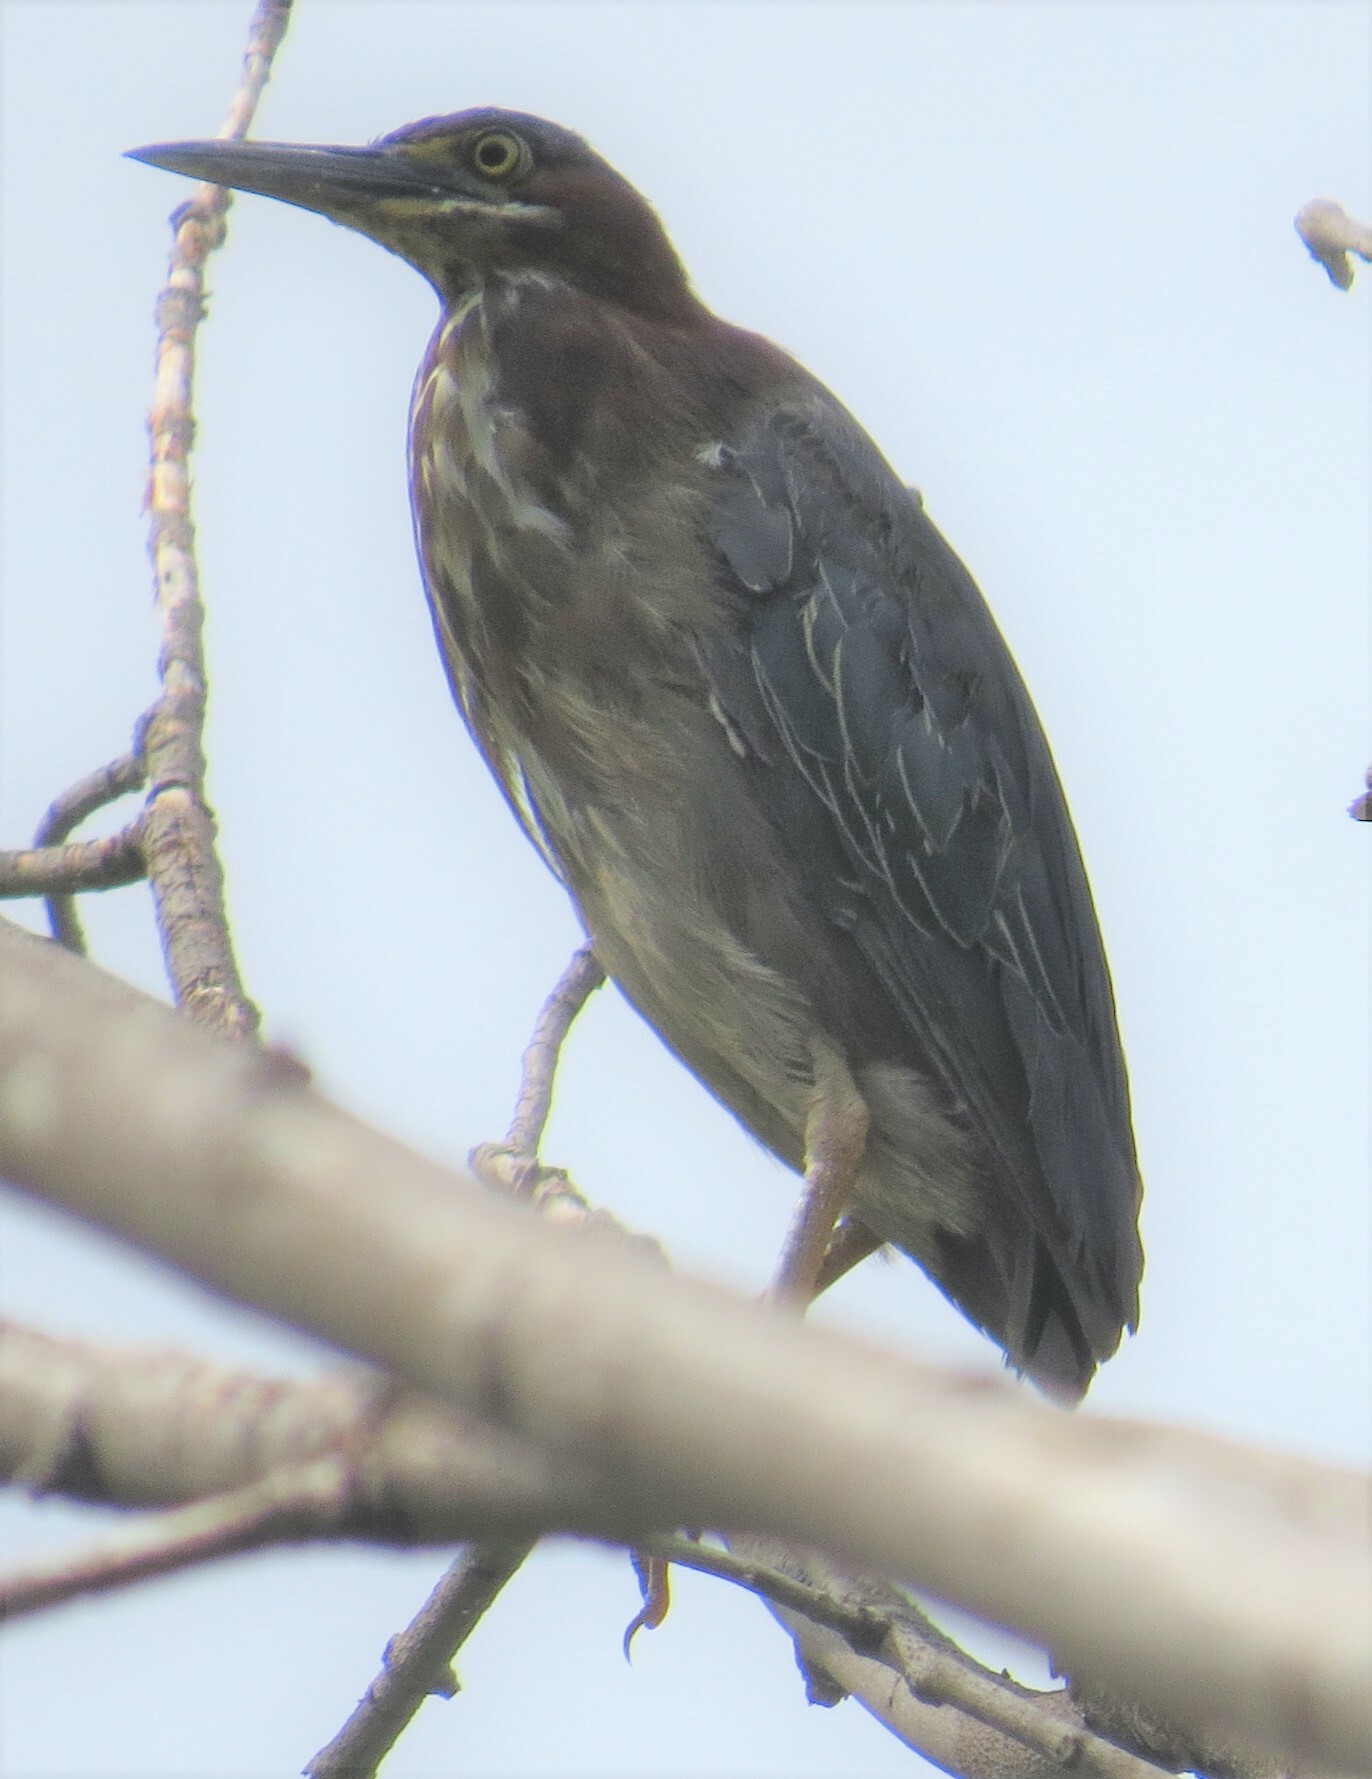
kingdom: Animalia
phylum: Chordata
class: Aves
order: Pelecaniformes
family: Ardeidae
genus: Butorides
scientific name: Butorides virescens
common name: Green heron
